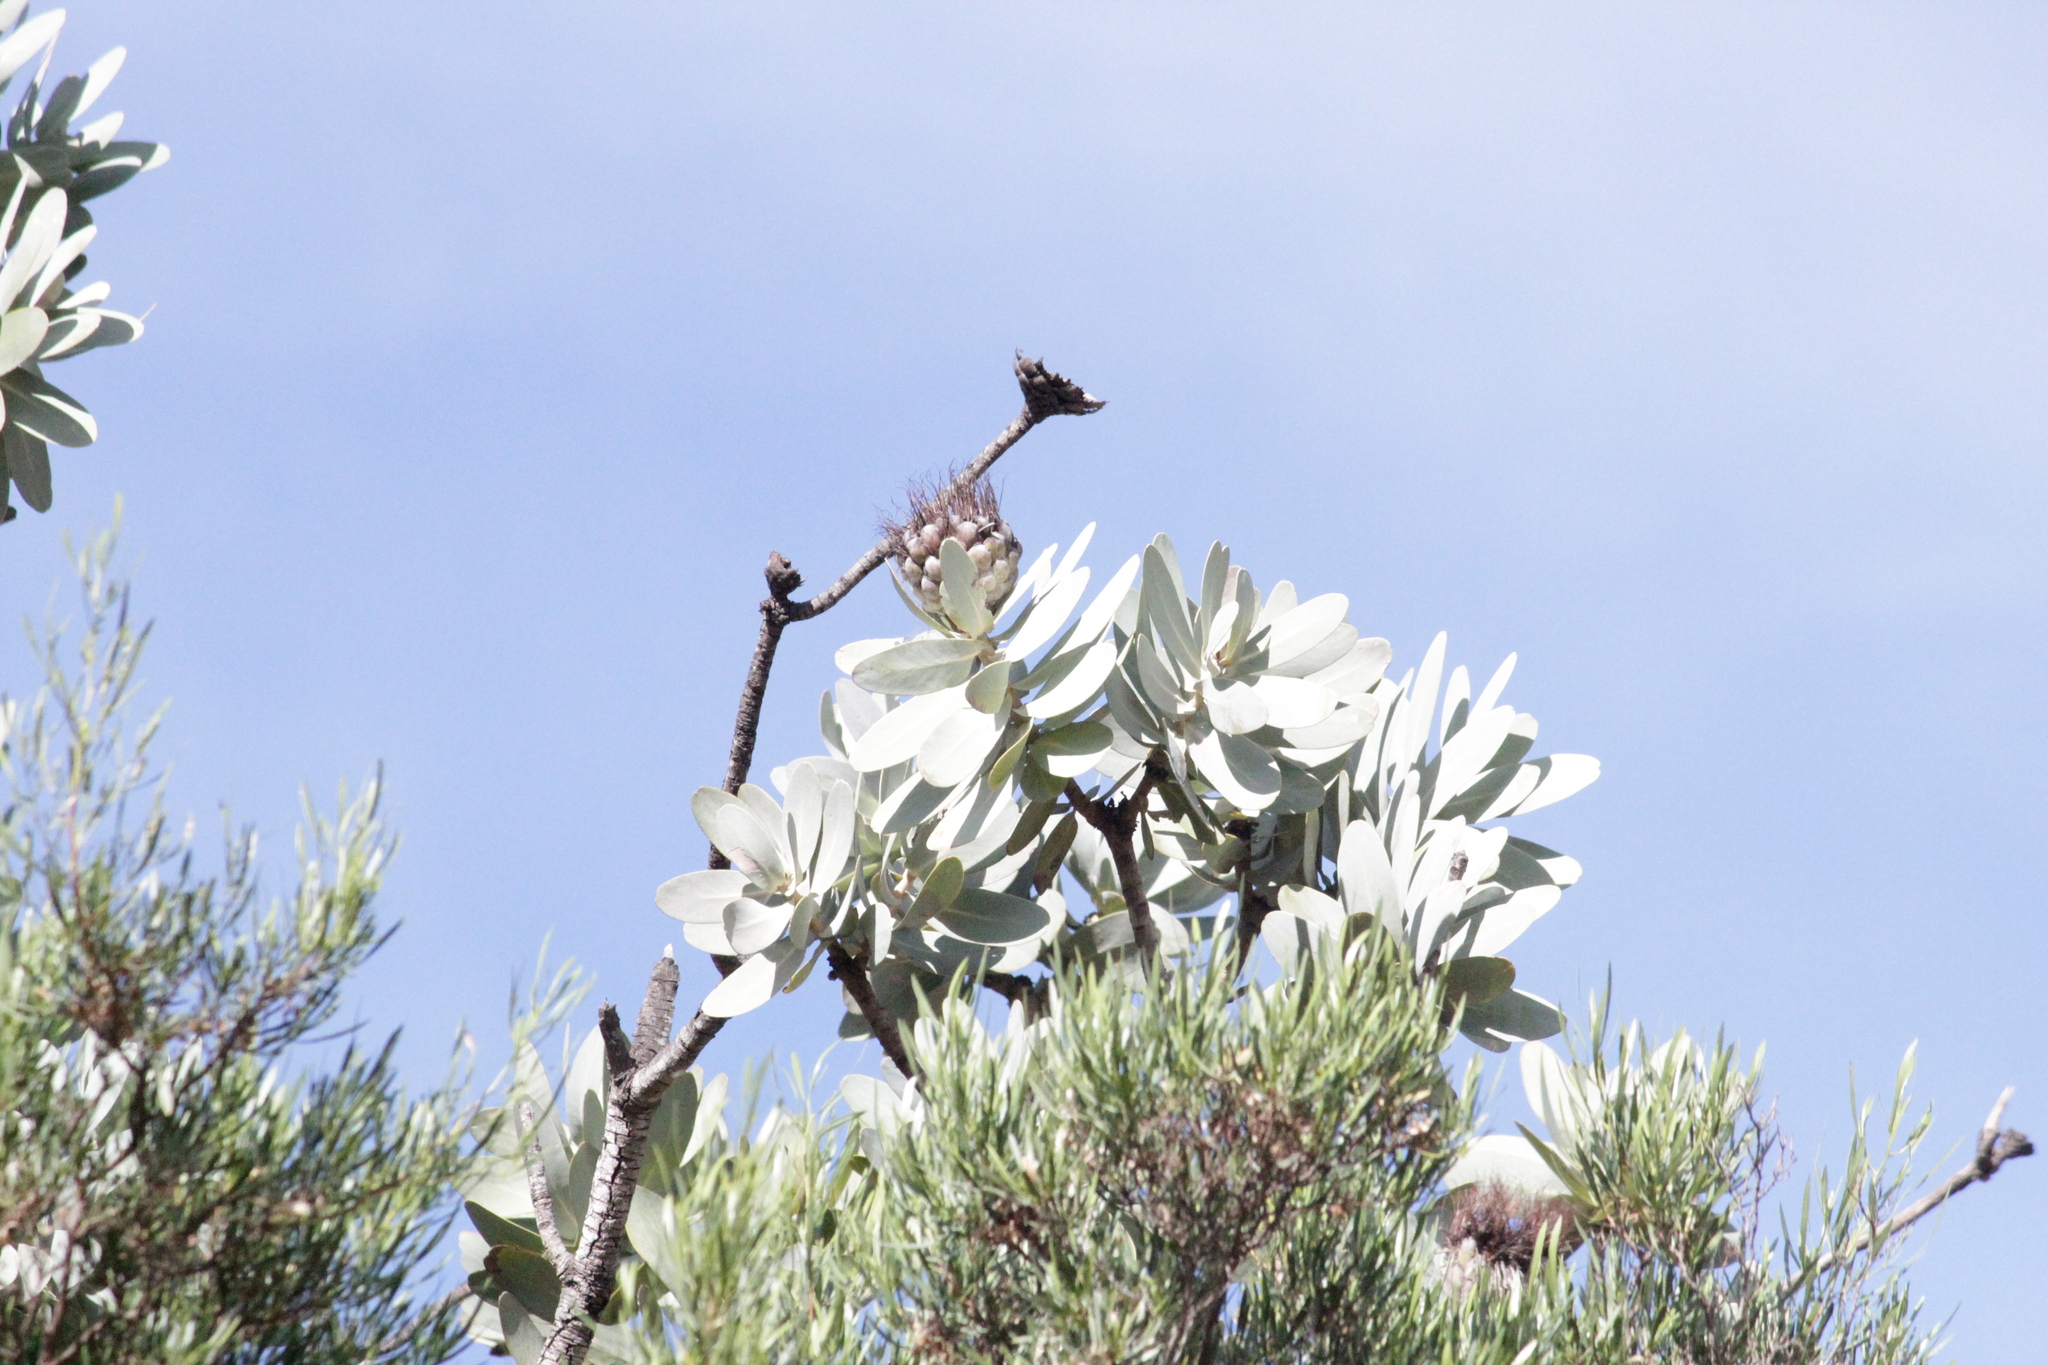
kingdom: Plantae
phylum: Tracheophyta
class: Magnoliopsida
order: Proteales
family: Proteaceae
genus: Protea
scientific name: Protea nitida
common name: Tree protea
